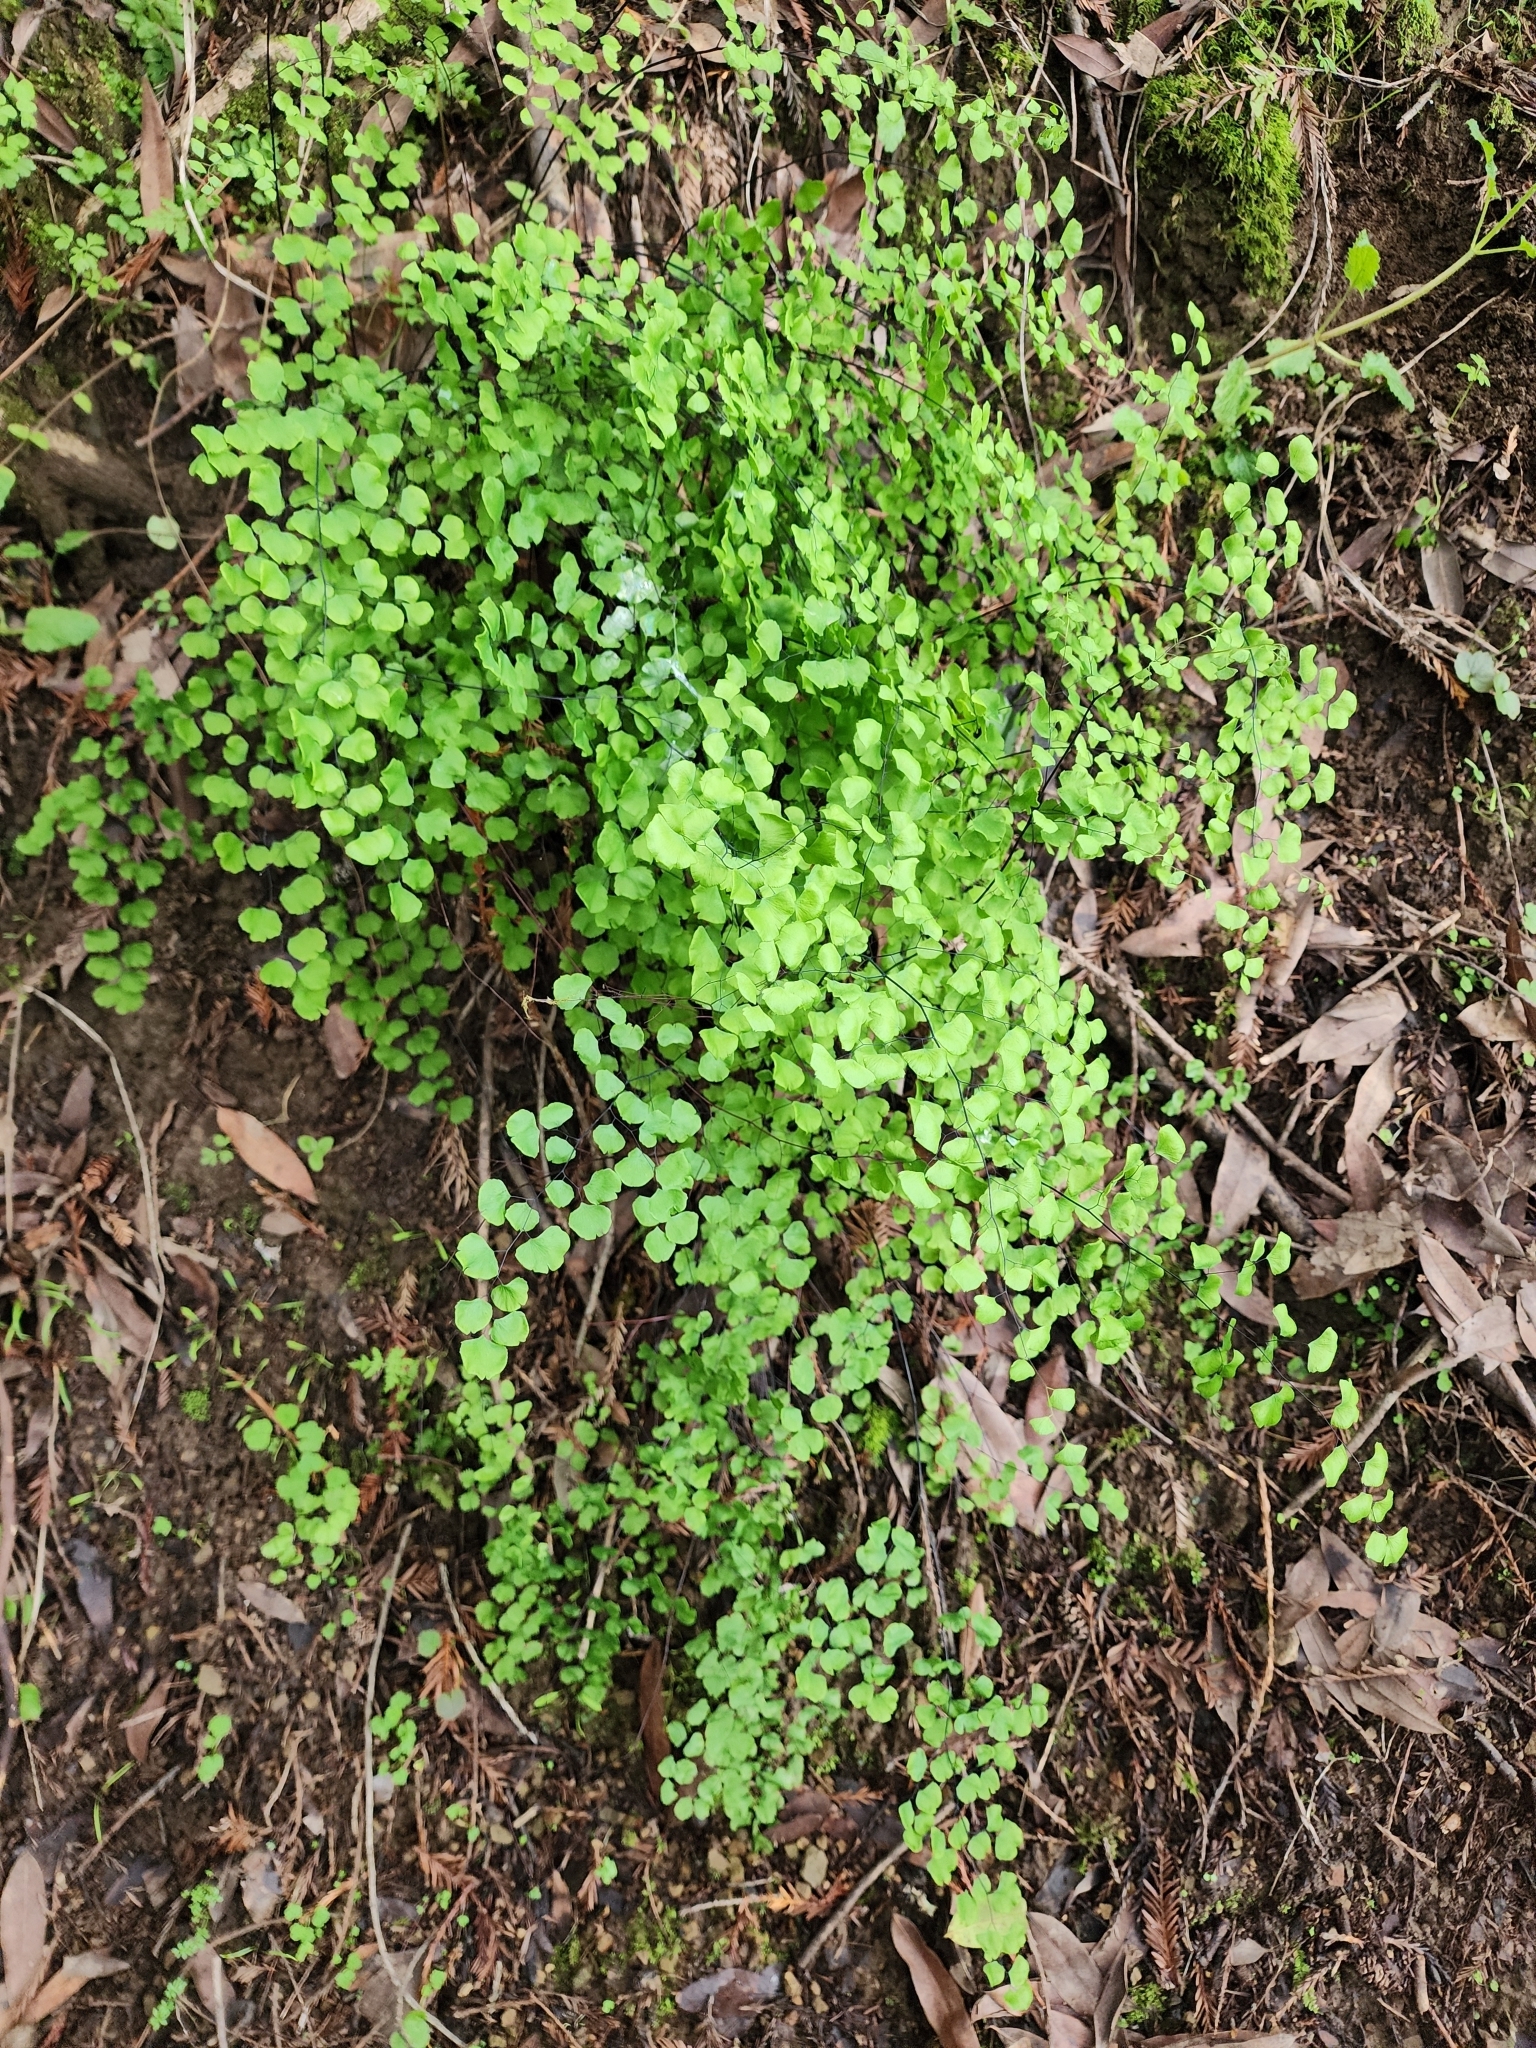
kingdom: Plantae
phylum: Tracheophyta
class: Polypodiopsida
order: Polypodiales
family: Pteridaceae
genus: Adiantum
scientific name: Adiantum jordanii
